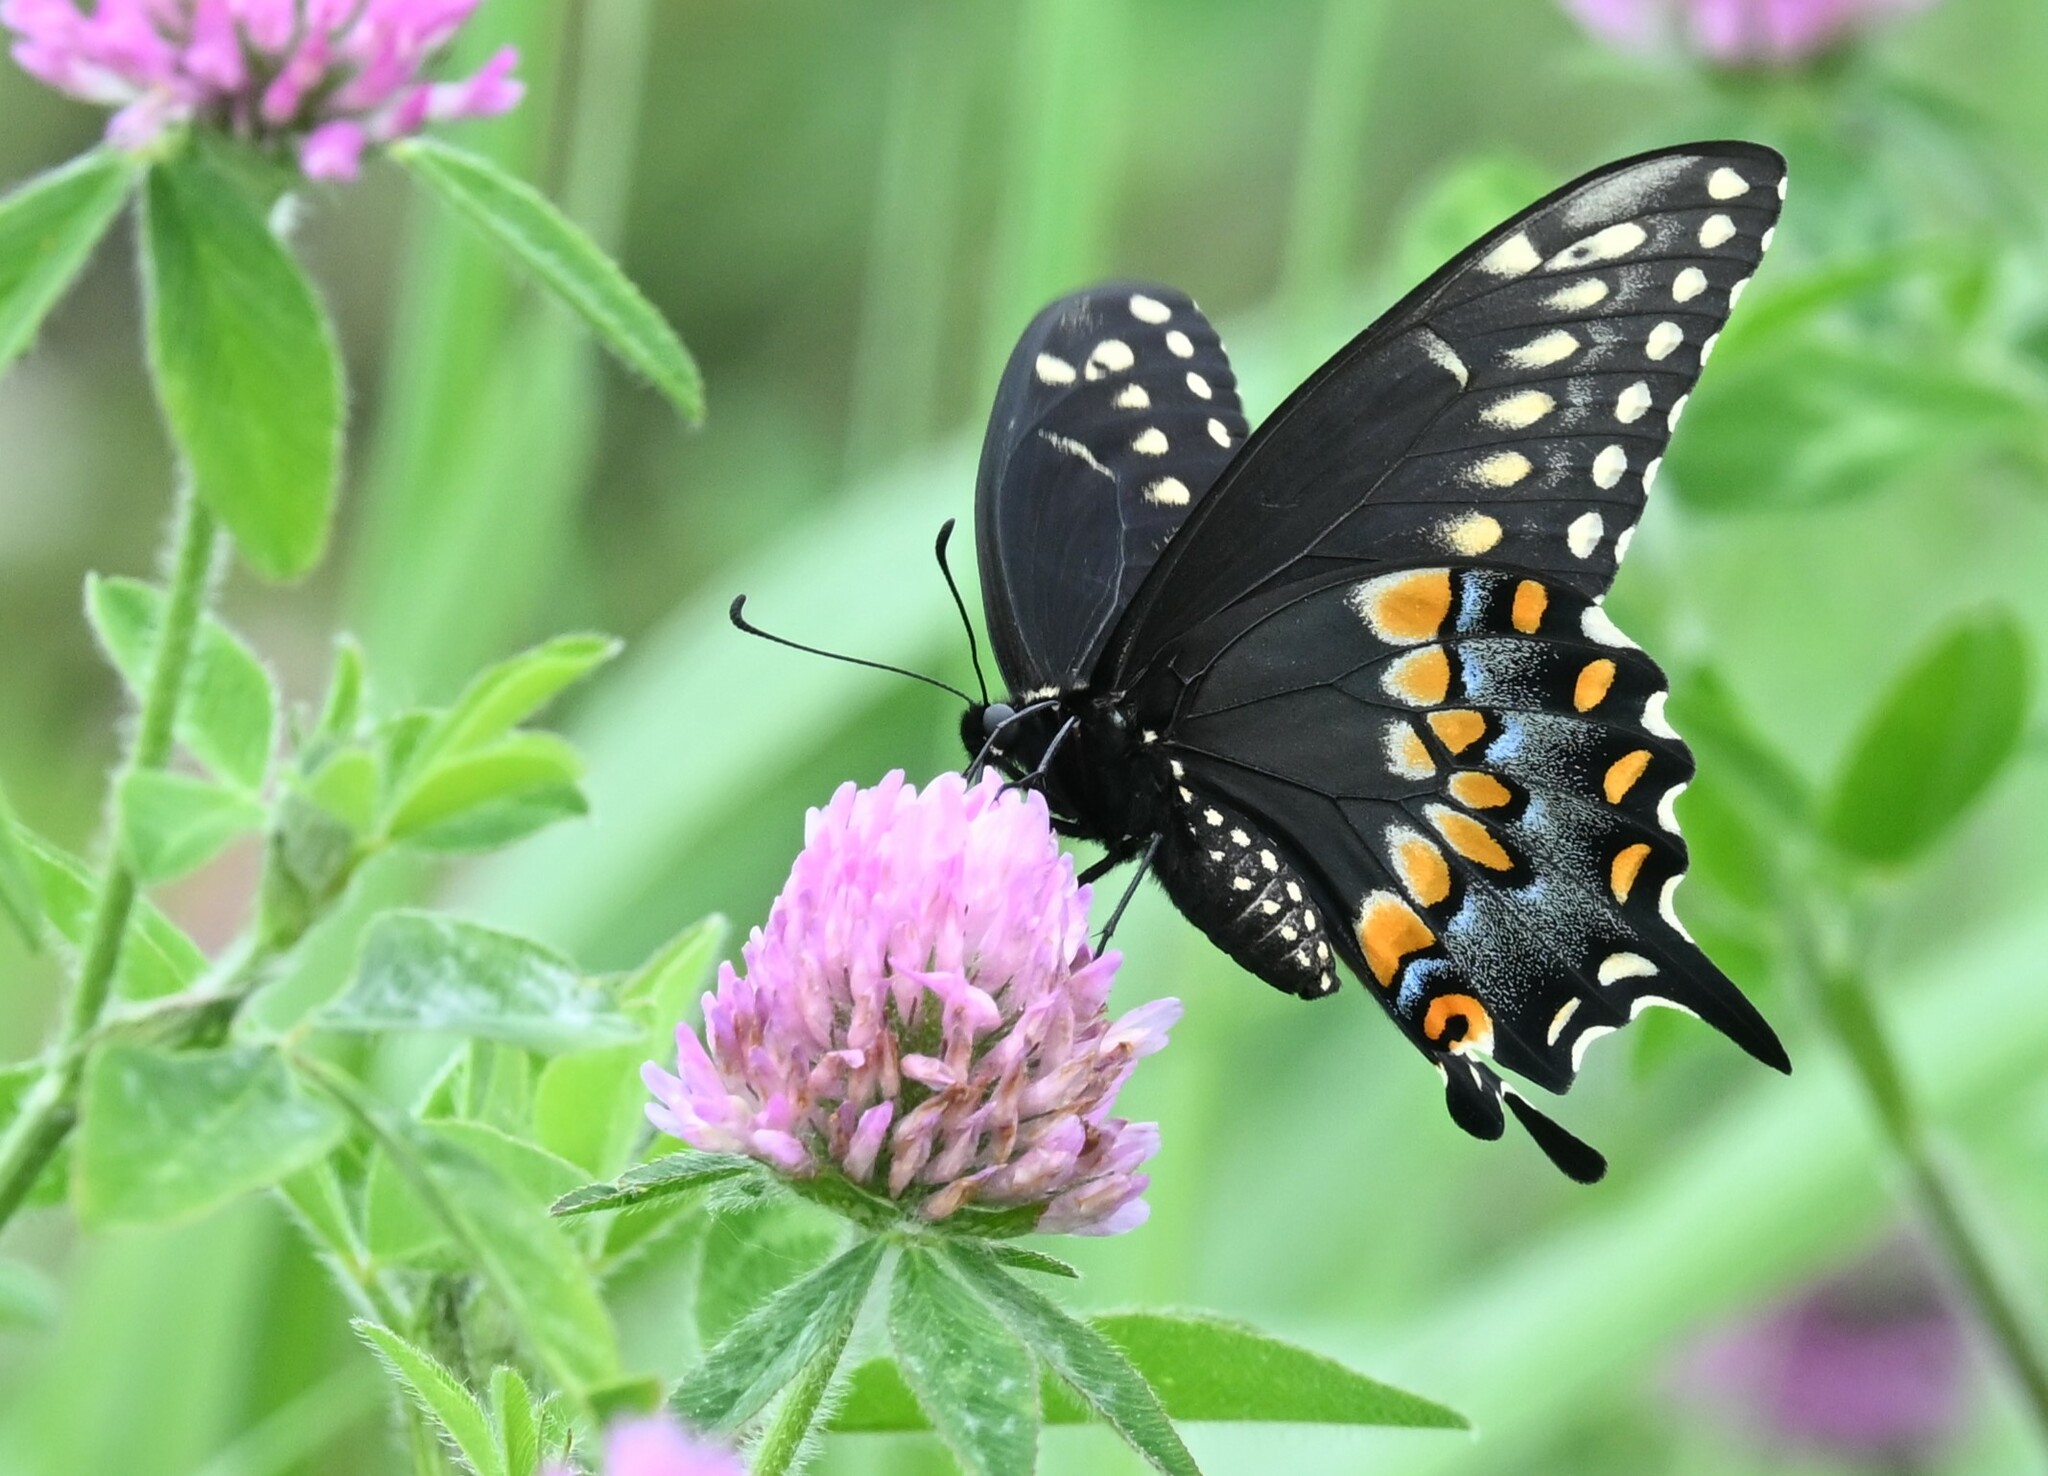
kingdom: Animalia
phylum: Arthropoda
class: Insecta
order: Lepidoptera
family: Papilionidae
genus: Papilio
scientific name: Papilio polyxenes
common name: Black swallowtail
